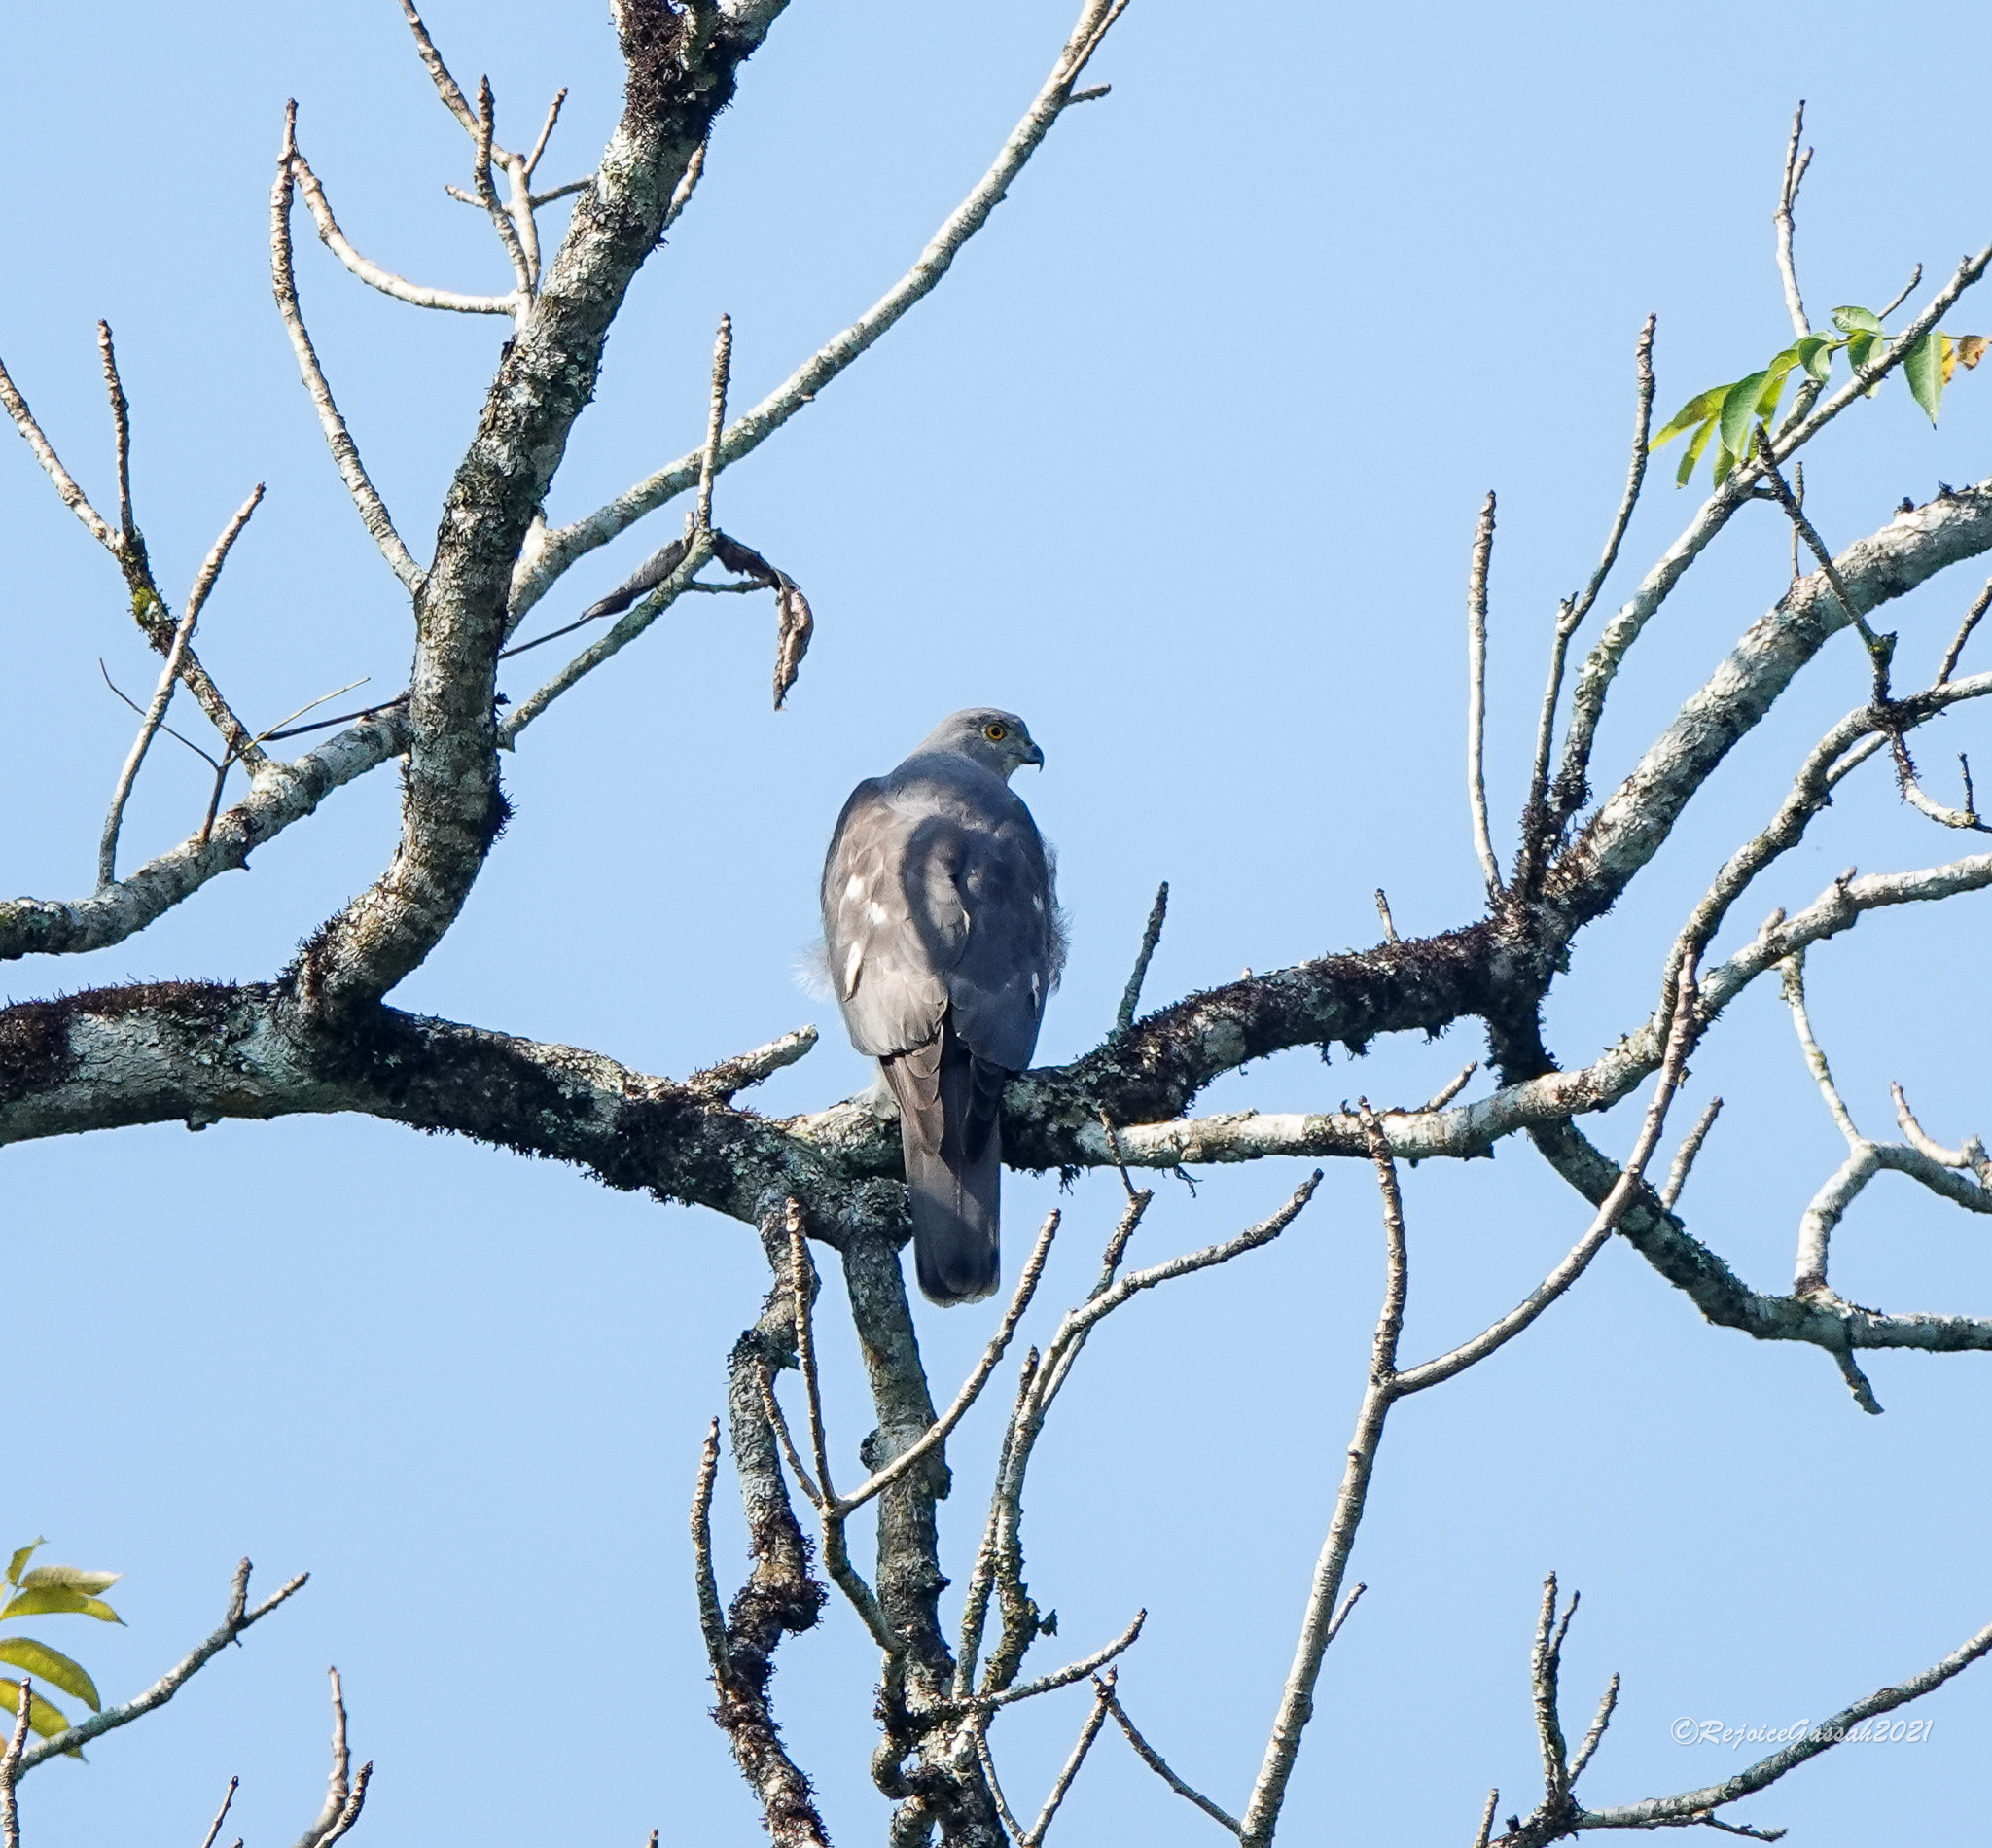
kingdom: Animalia
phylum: Chordata
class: Aves
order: Accipitriformes
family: Accipitridae
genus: Accipiter
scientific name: Accipiter badius
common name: Shikra
